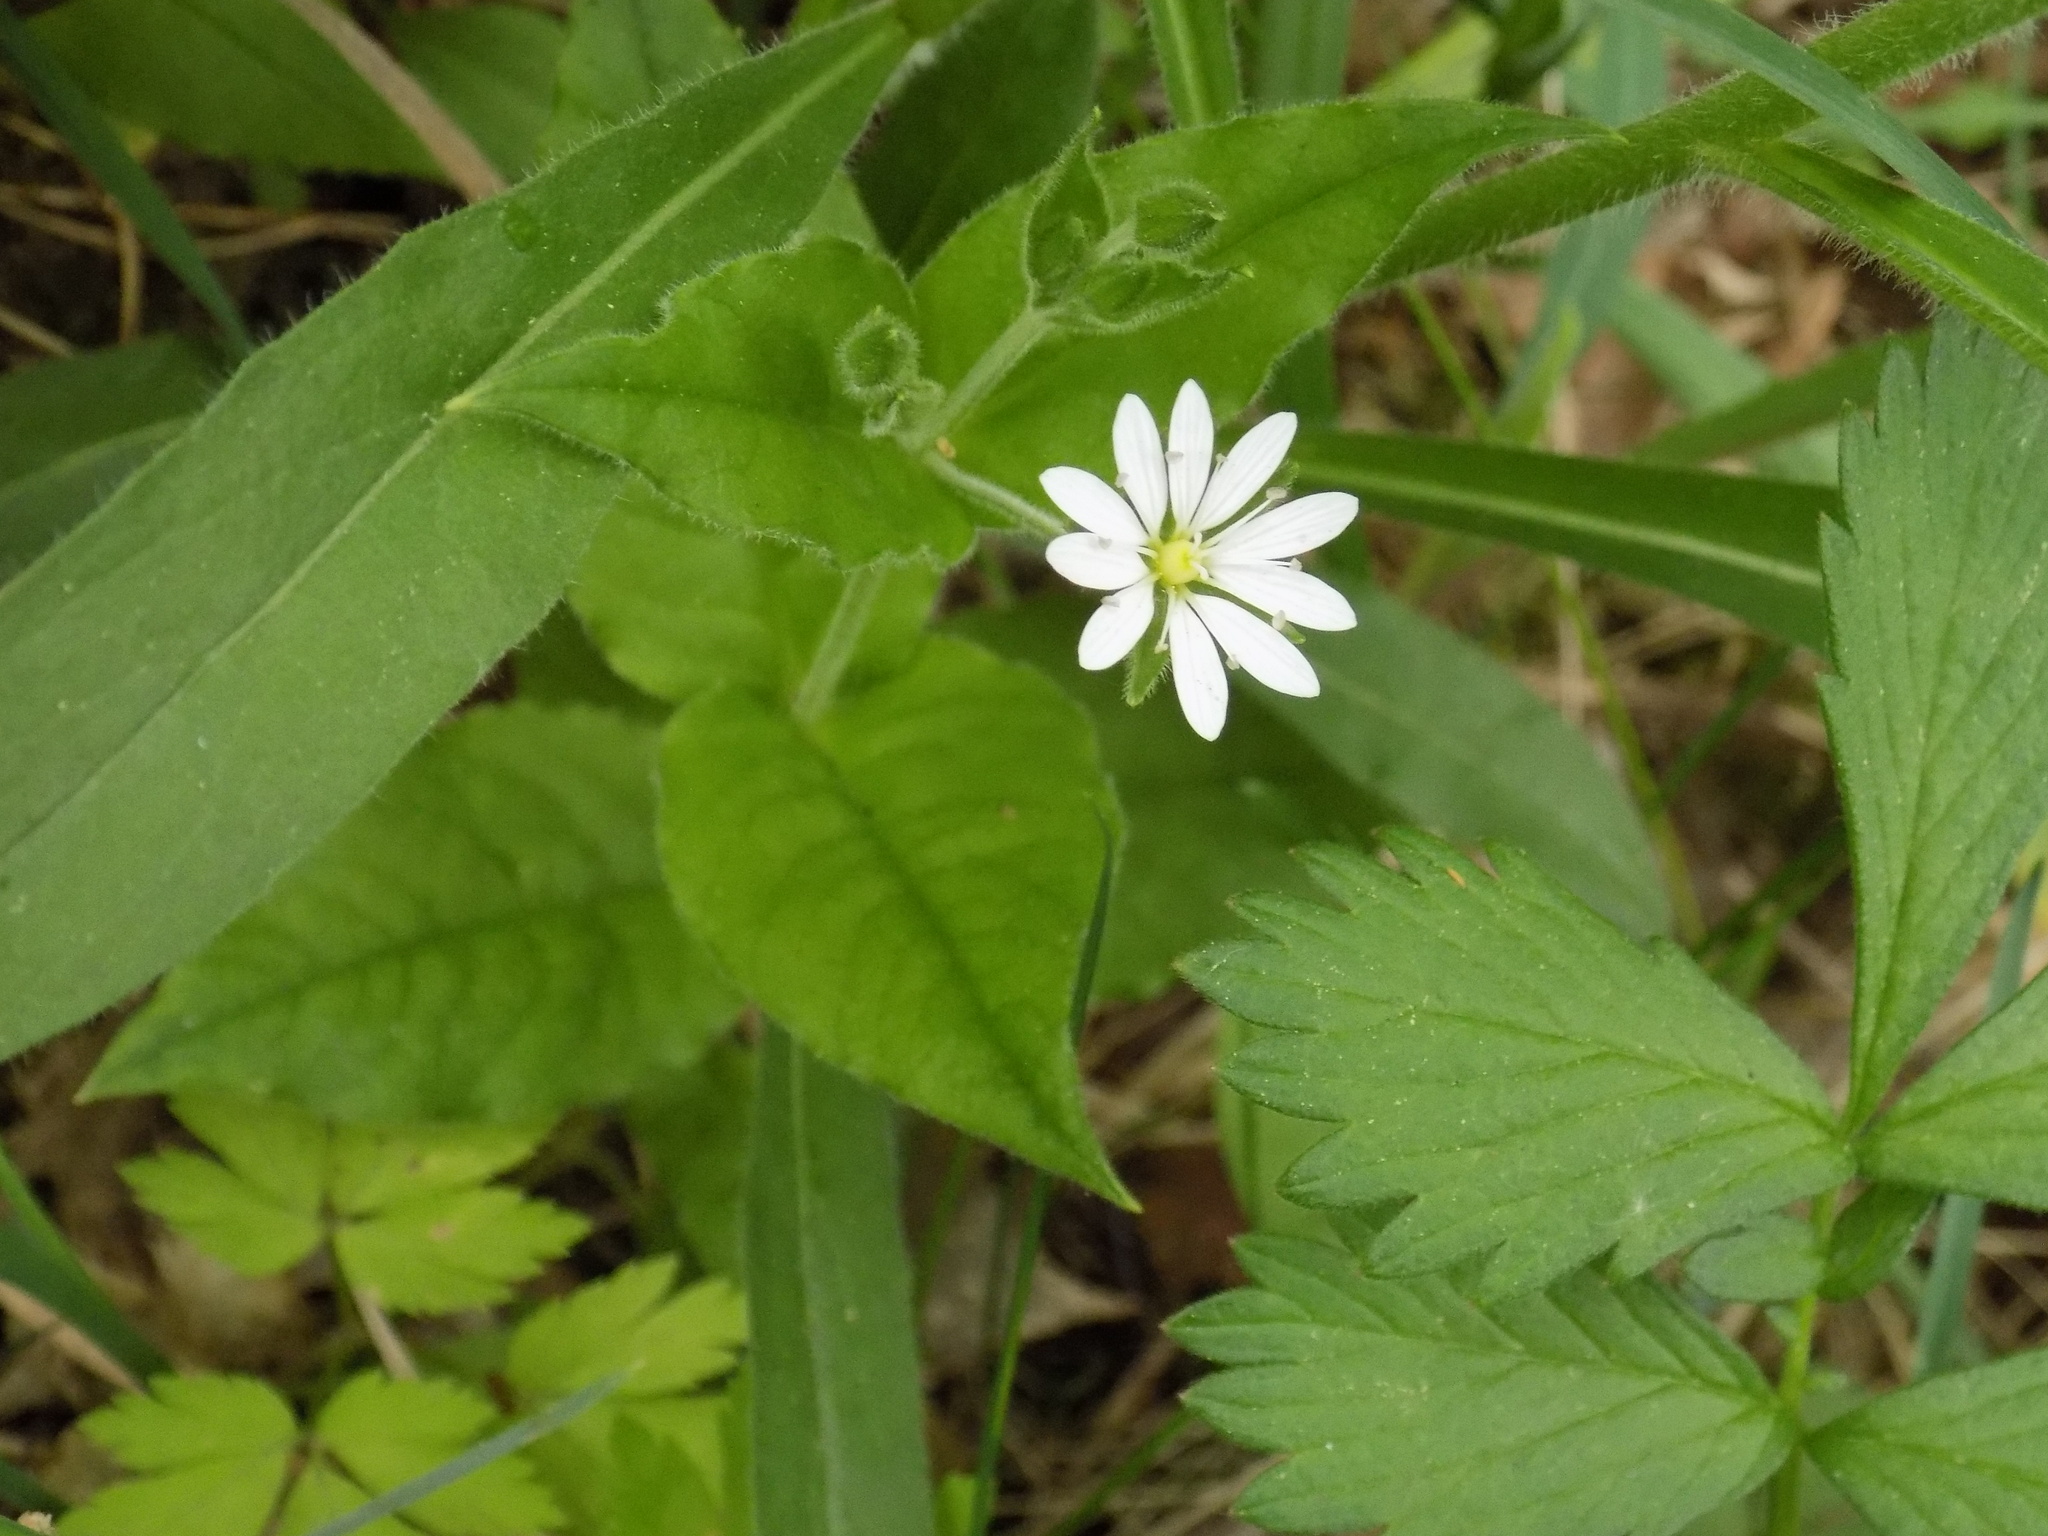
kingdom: Plantae
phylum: Tracheophyta
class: Magnoliopsida
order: Caryophyllales
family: Caryophyllaceae
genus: Stellaria
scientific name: Stellaria bungeana
